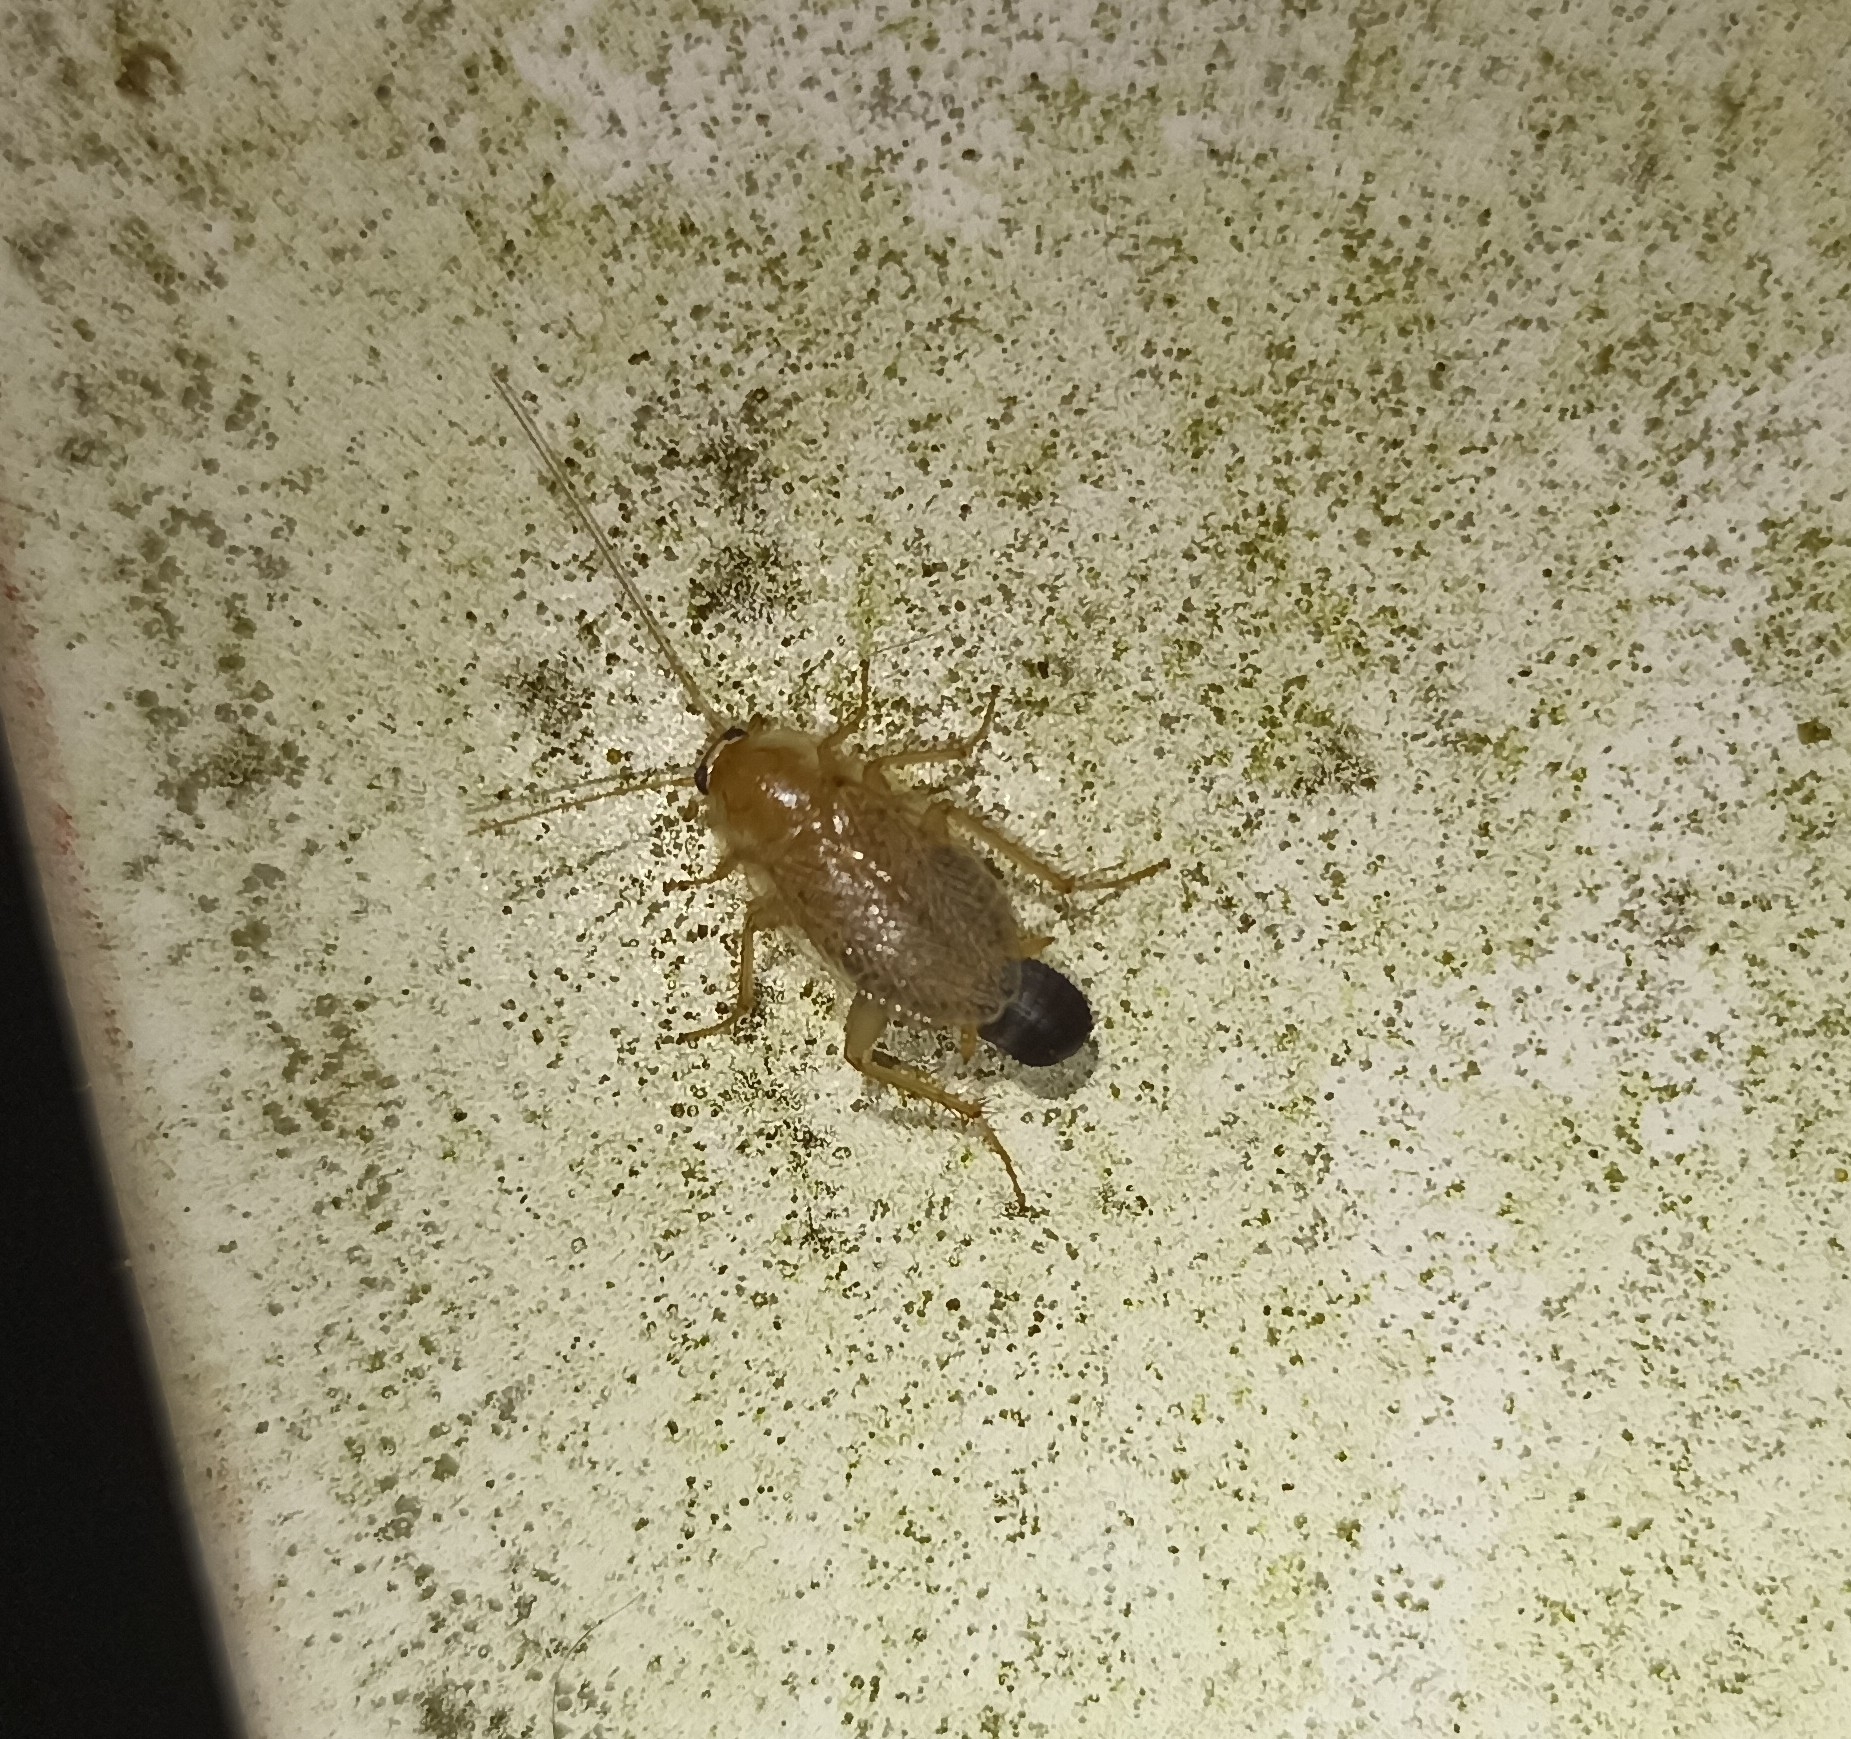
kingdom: Animalia
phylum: Arthropoda
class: Insecta
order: Blattodea
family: Ectobiidae
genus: Planuncus
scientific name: Planuncus tingitanus
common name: Variable cockroach
